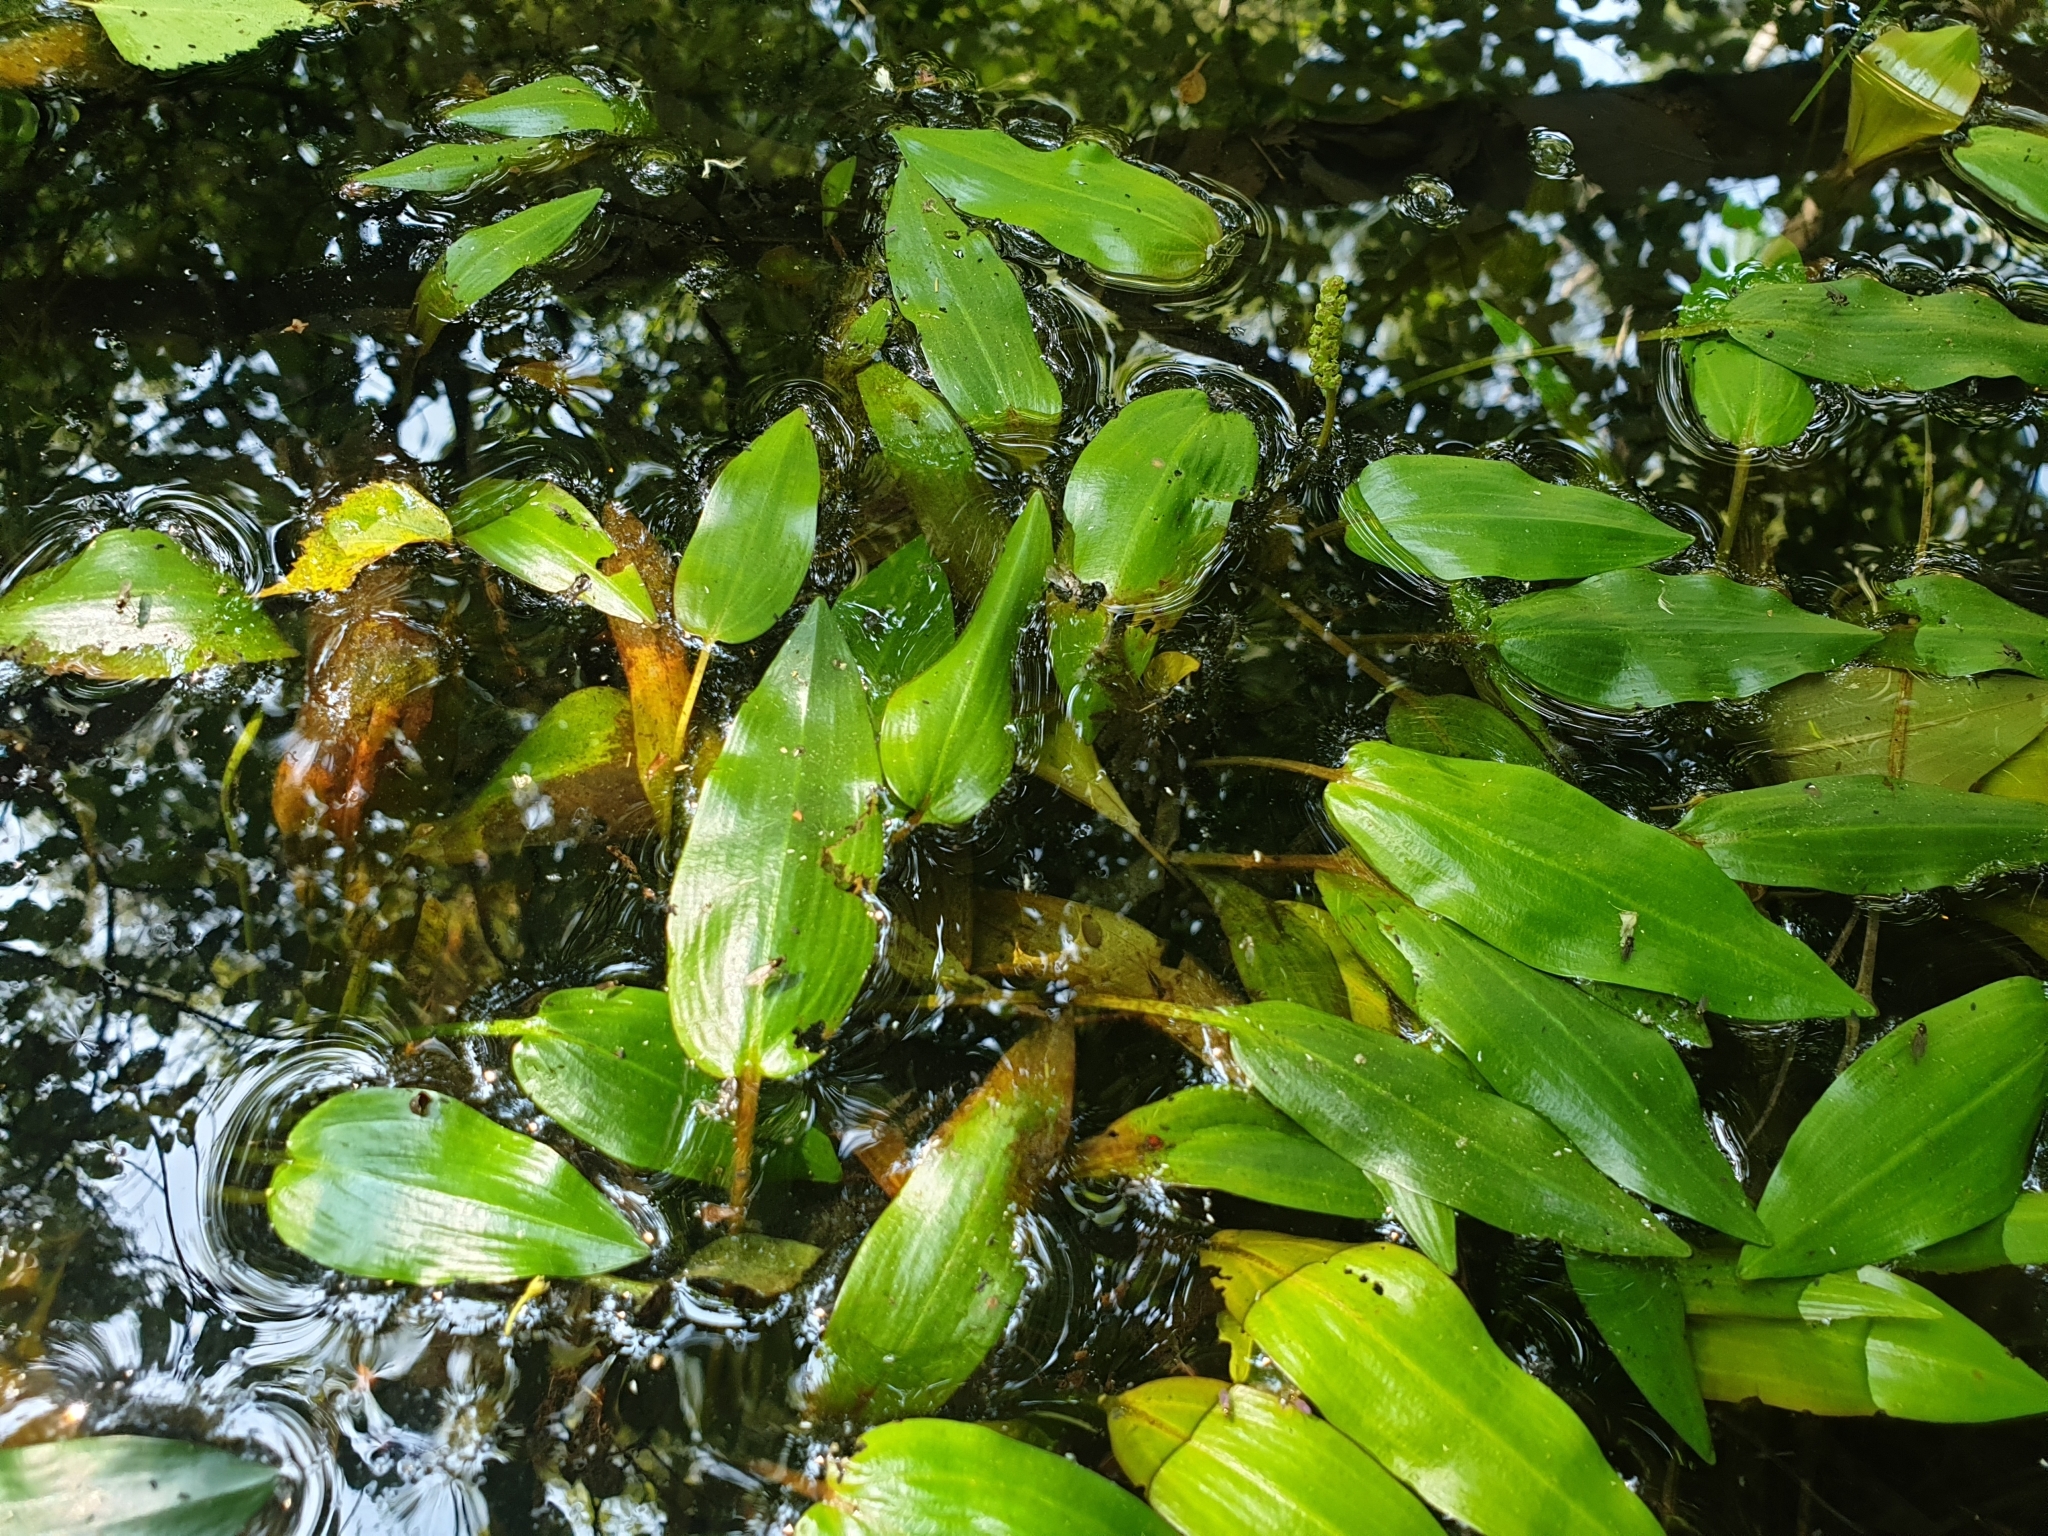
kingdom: Plantae
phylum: Tracheophyta
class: Liliopsida
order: Alismatales
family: Potamogetonaceae
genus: Potamogeton
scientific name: Potamogeton polygonifolius
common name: Bog pondweed
